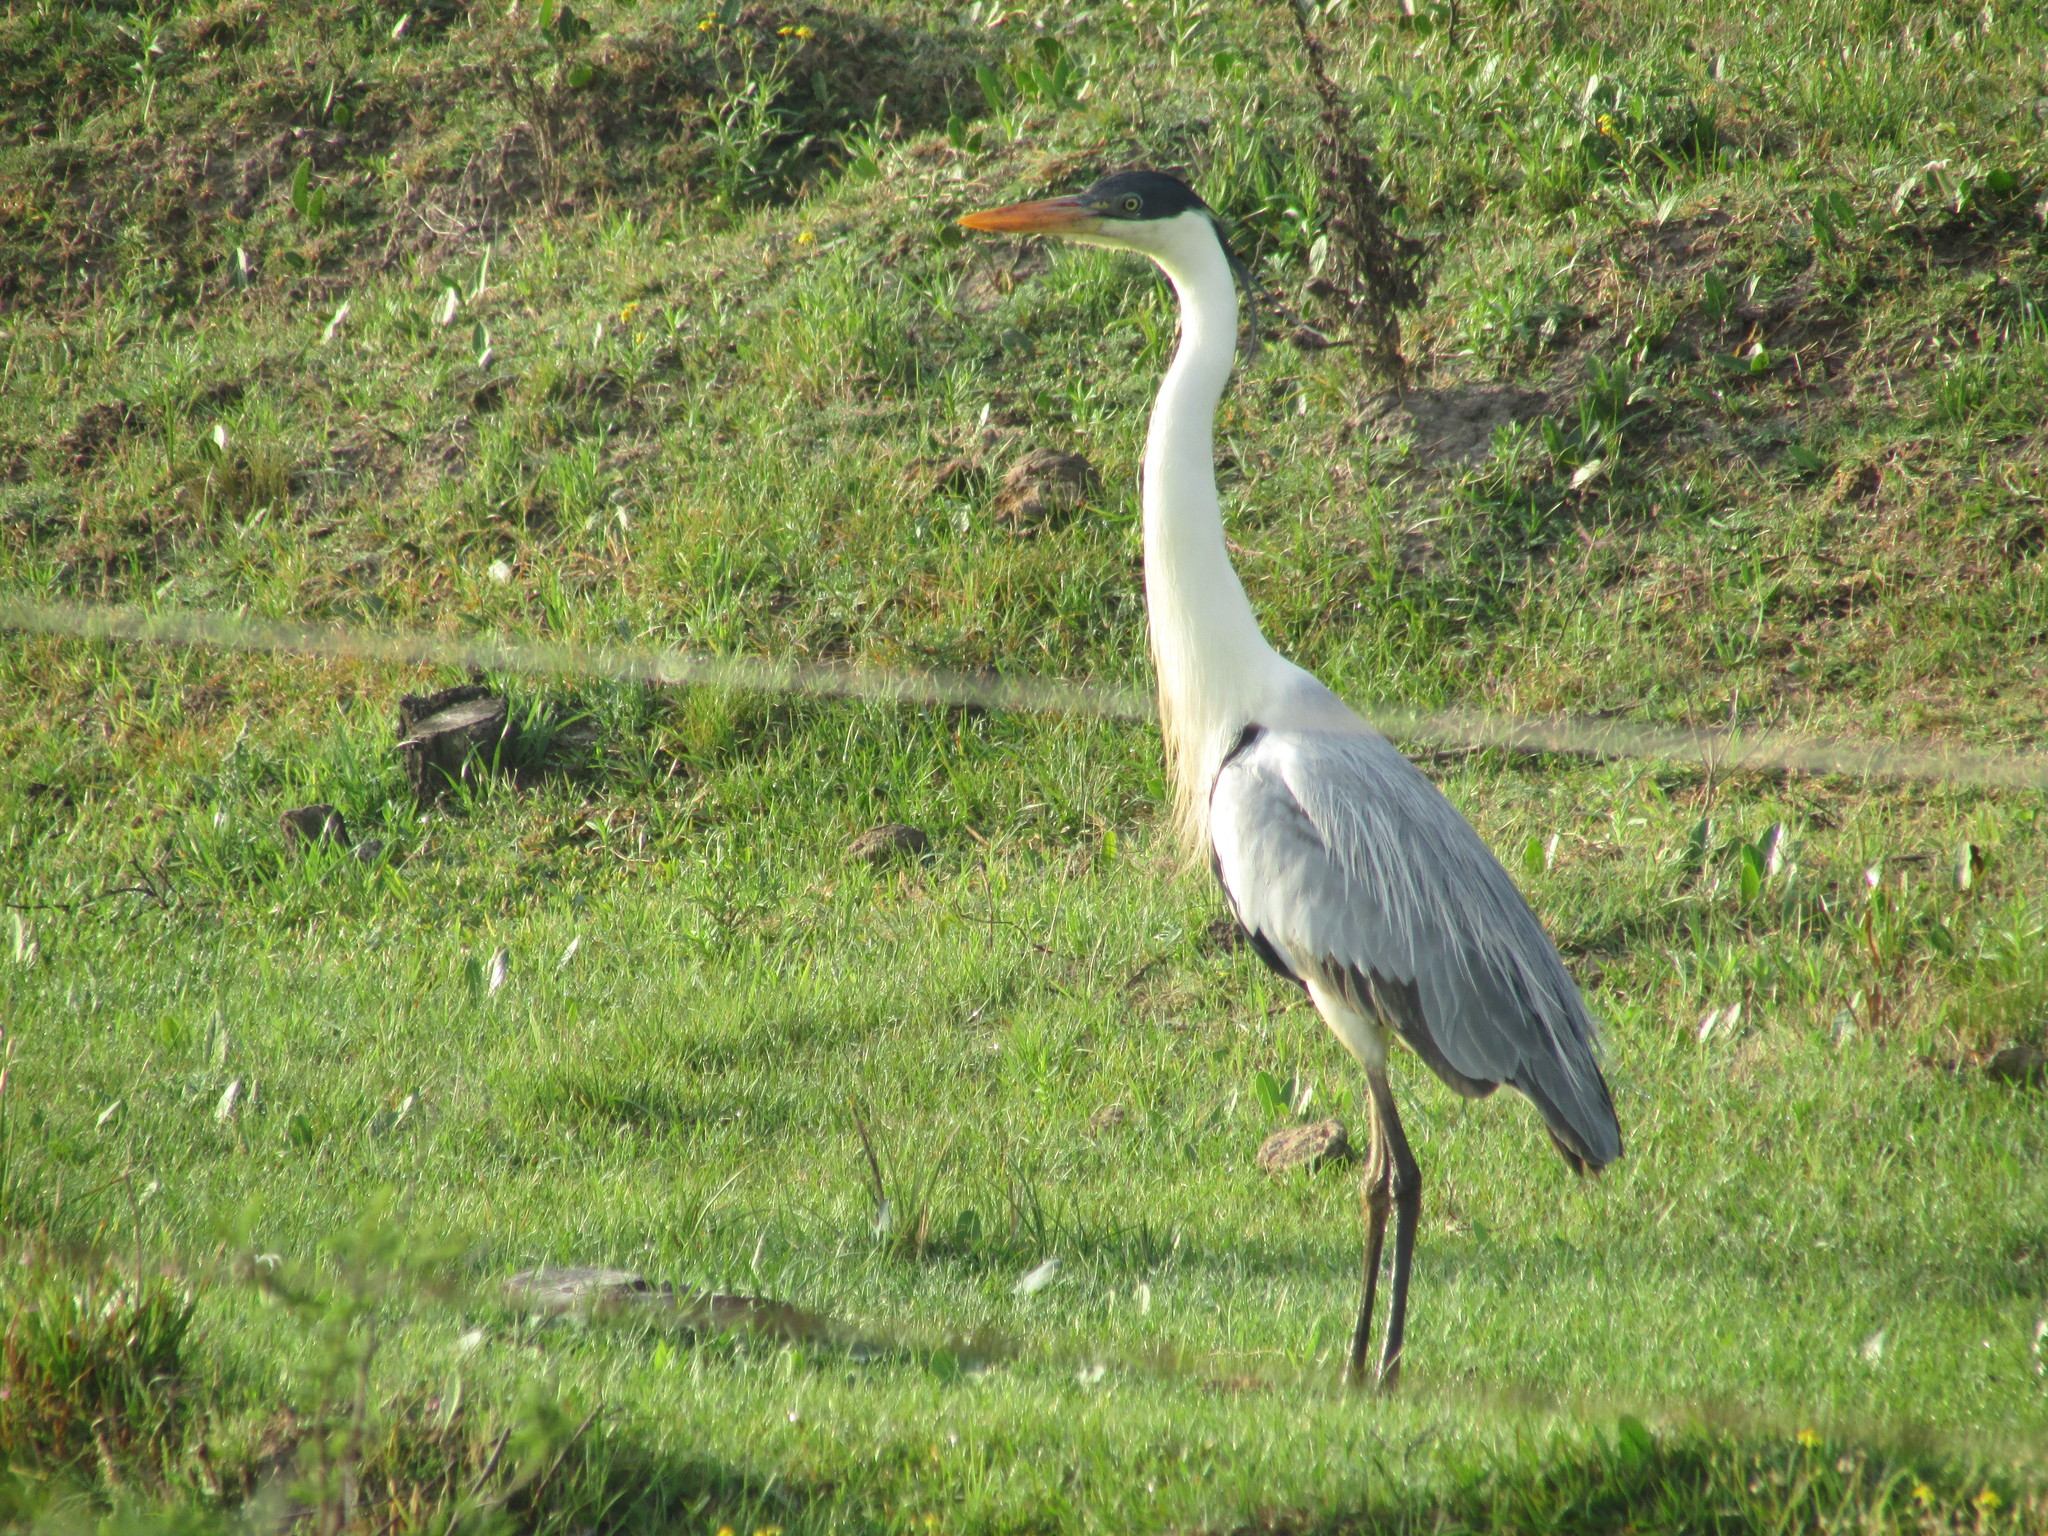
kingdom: Animalia
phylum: Chordata
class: Aves
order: Pelecaniformes
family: Ardeidae
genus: Ardea
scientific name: Ardea cocoi
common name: Cocoi heron
